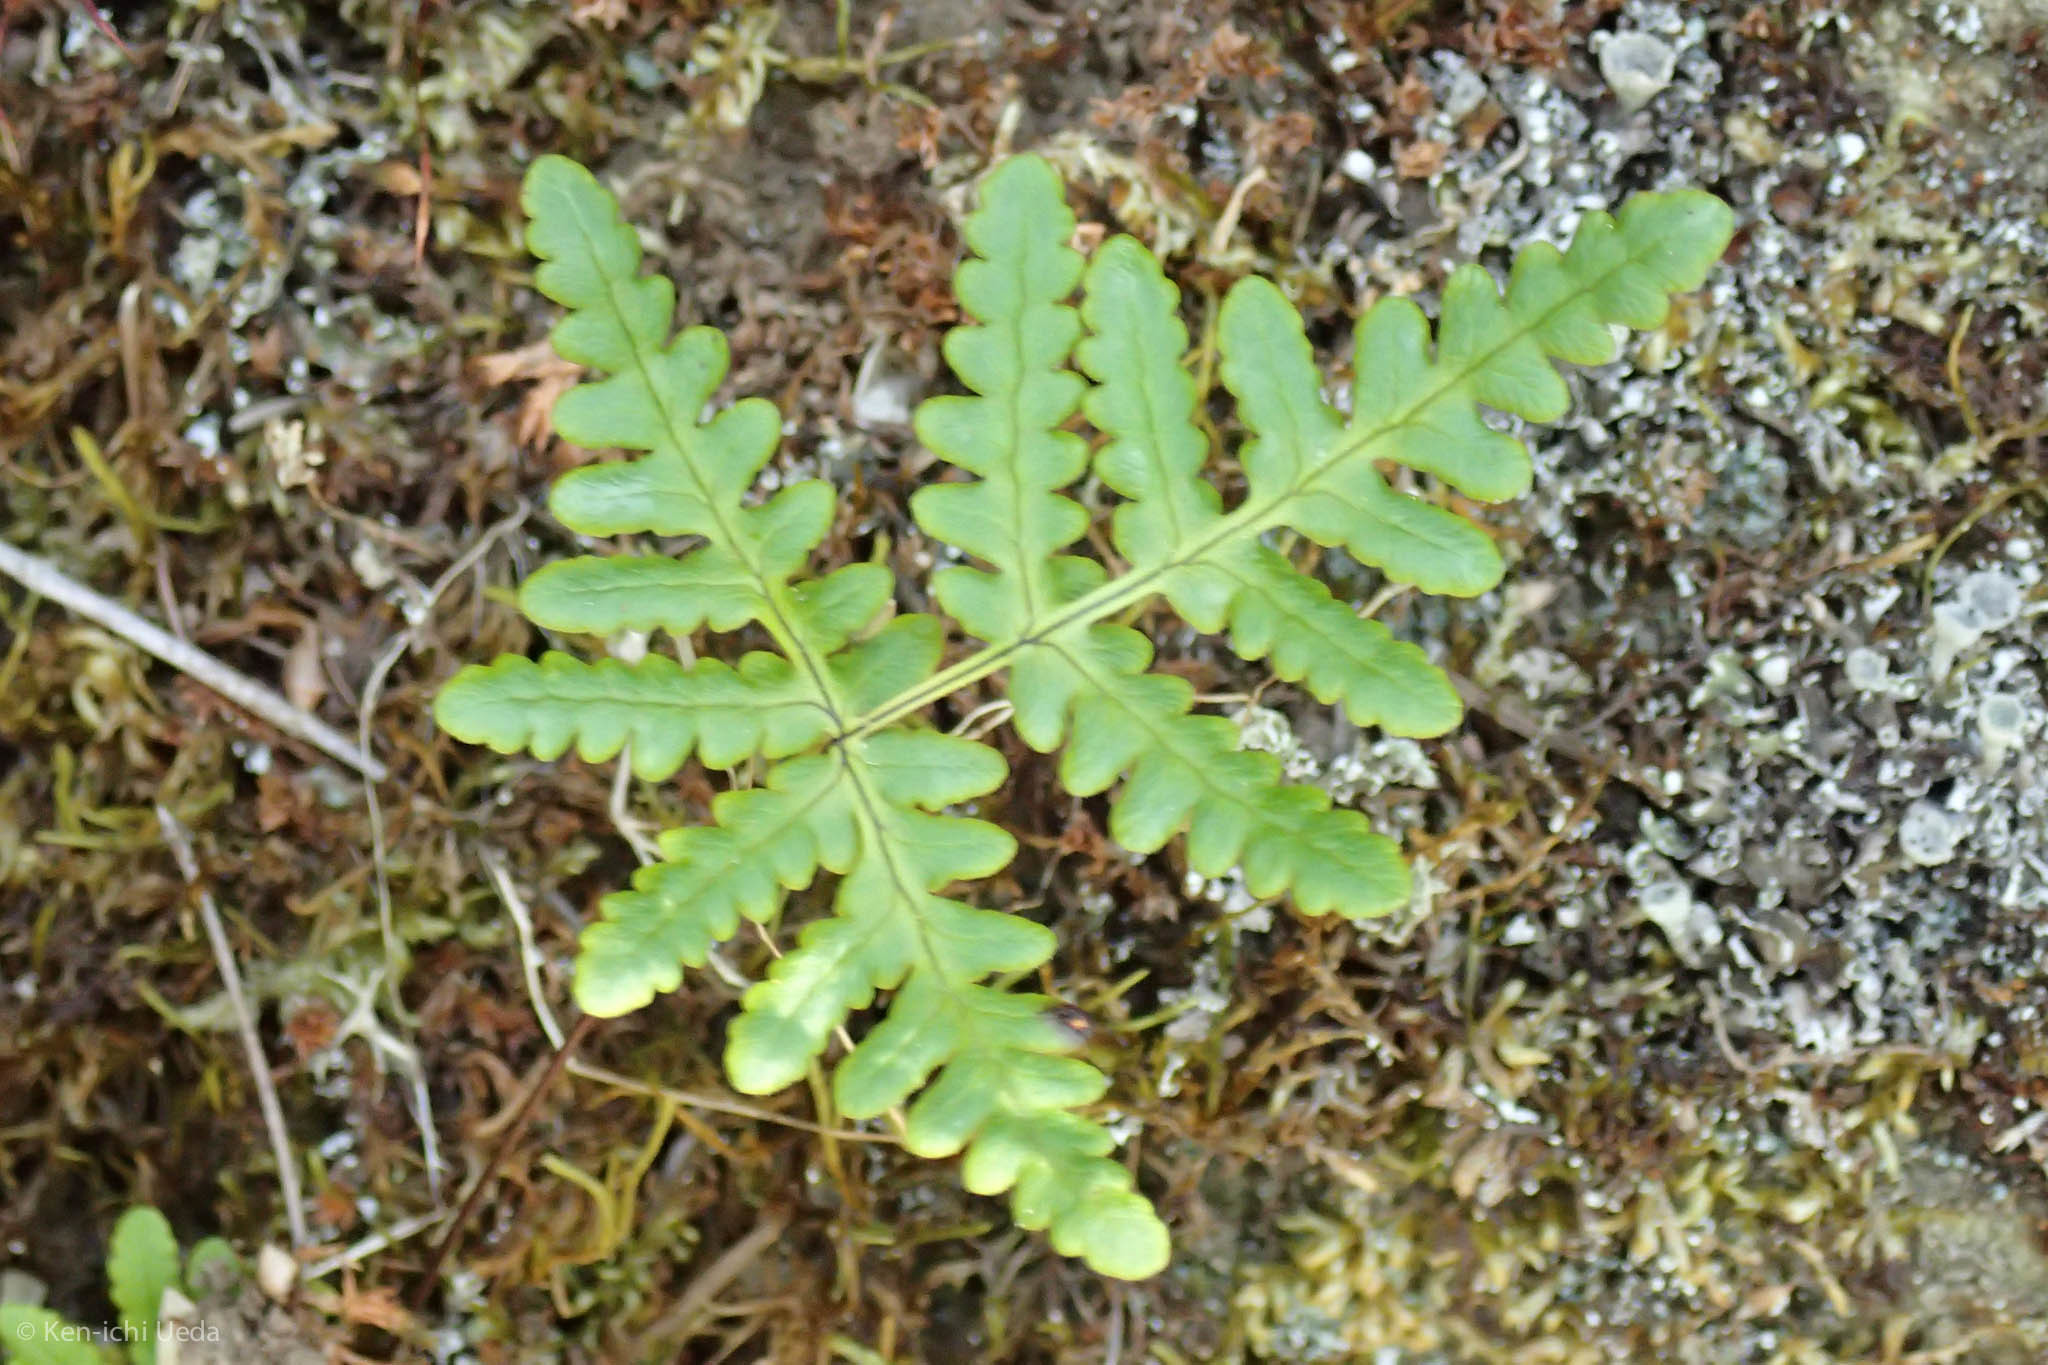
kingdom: Plantae
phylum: Tracheophyta
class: Polypodiopsida
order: Polypodiales
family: Pteridaceae
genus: Pentagramma
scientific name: Pentagramma triangularis
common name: Gold fern
